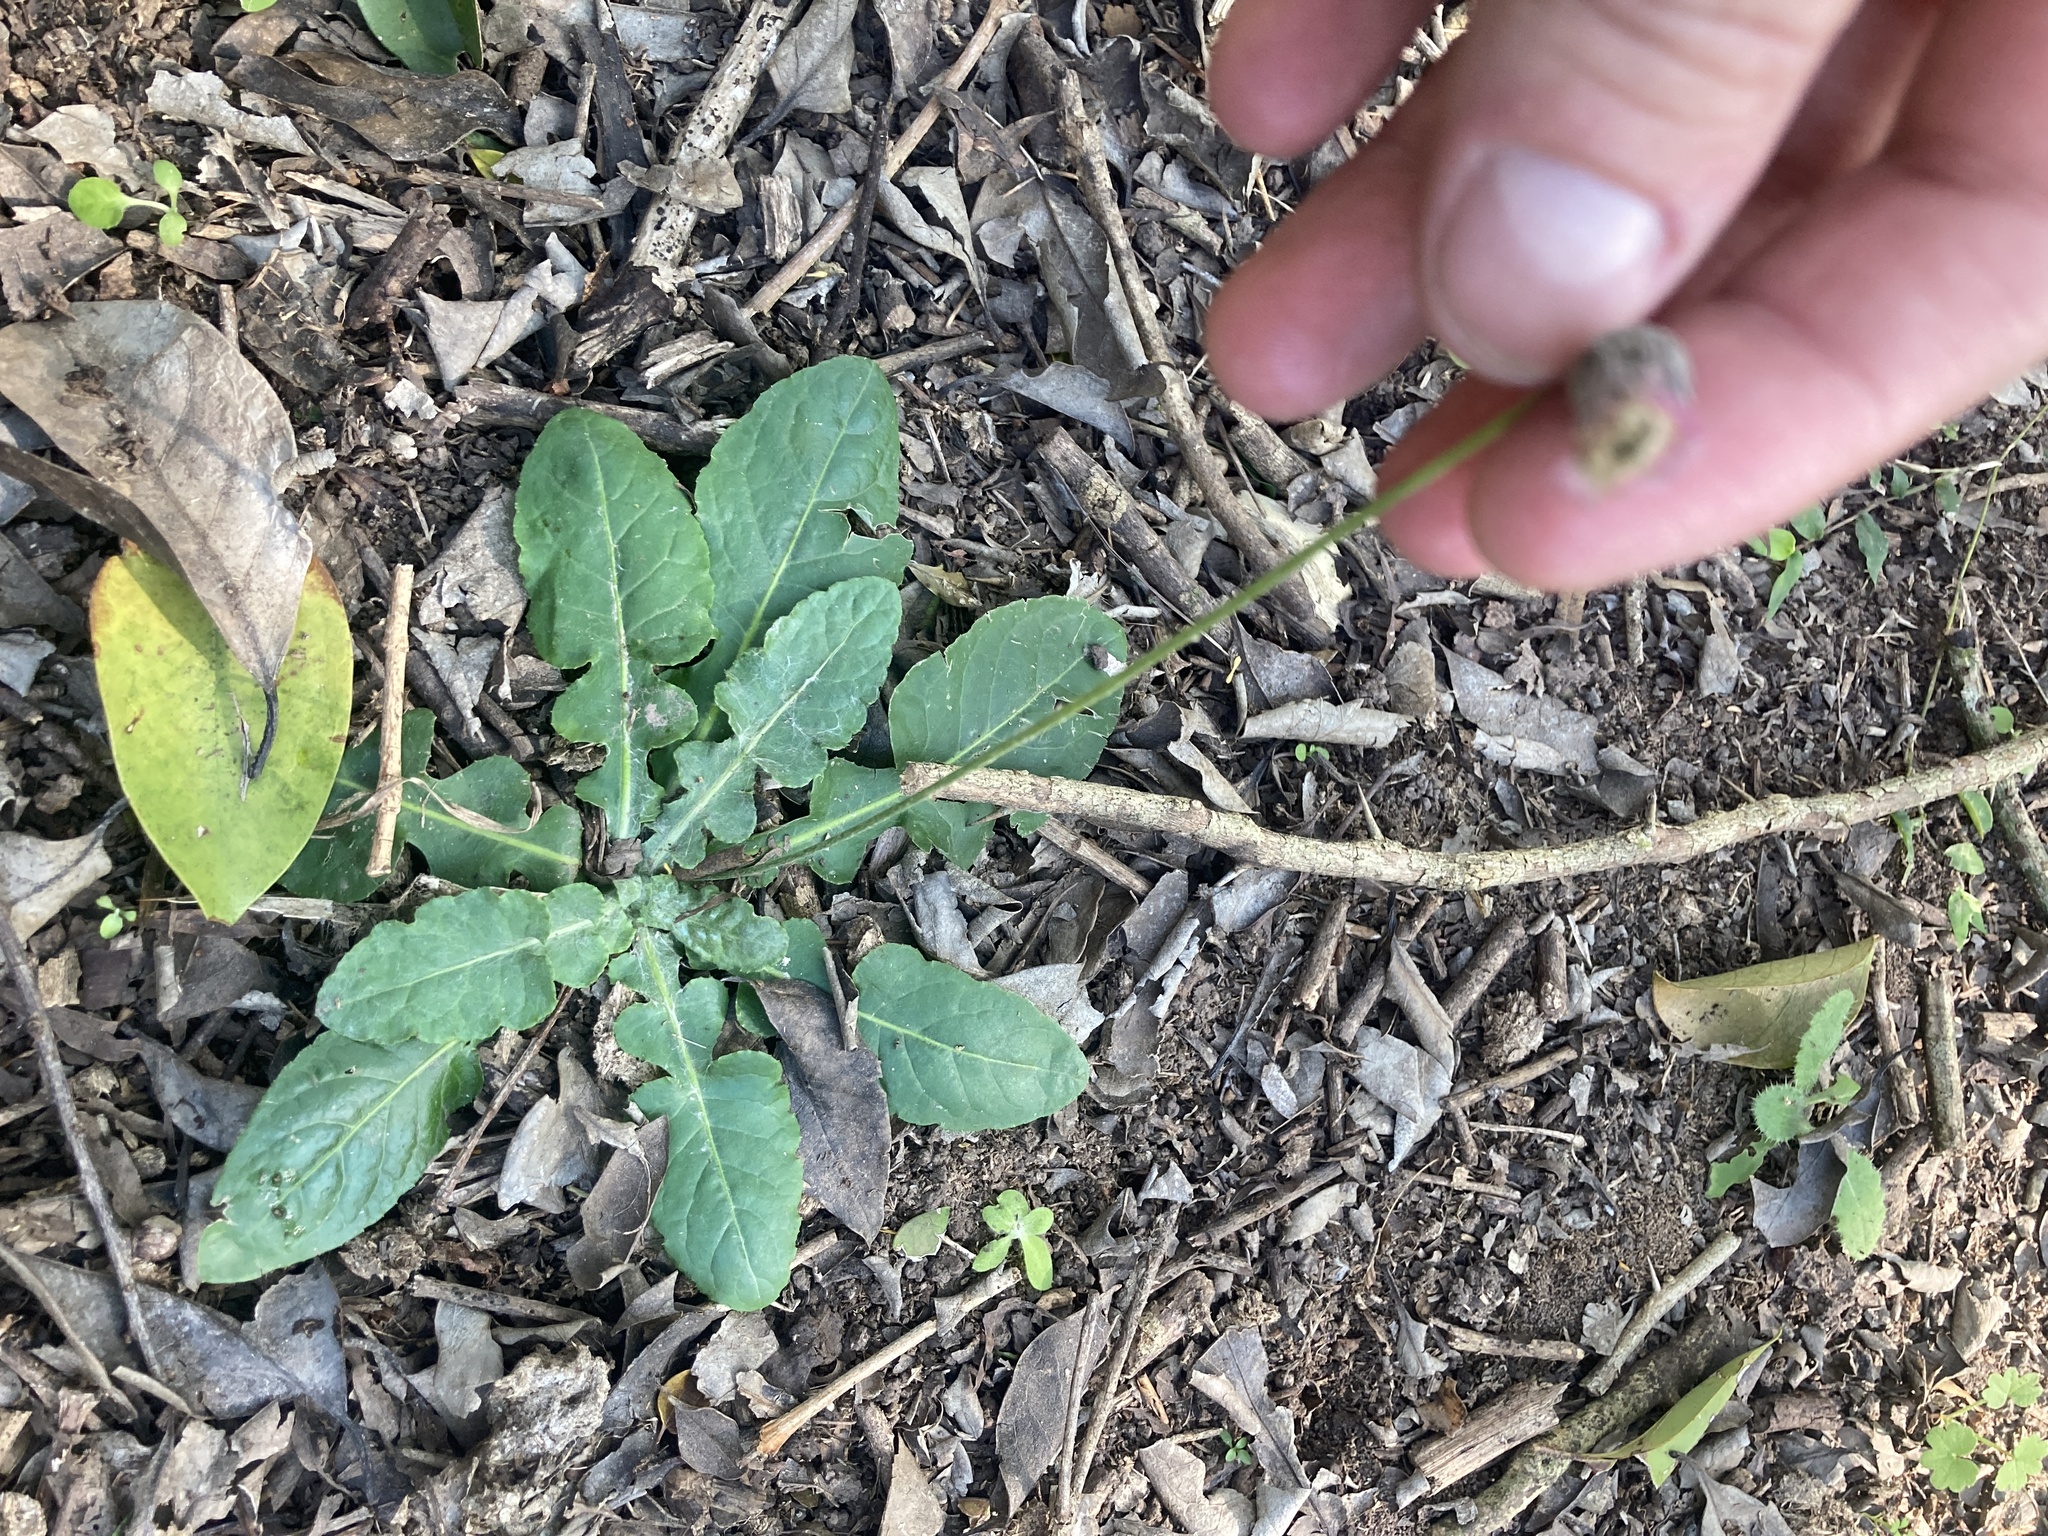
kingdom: Plantae
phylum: Tracheophyta
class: Magnoliopsida
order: Asterales
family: Asteraceae
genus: Chaptalia
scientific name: Chaptalia nutans
